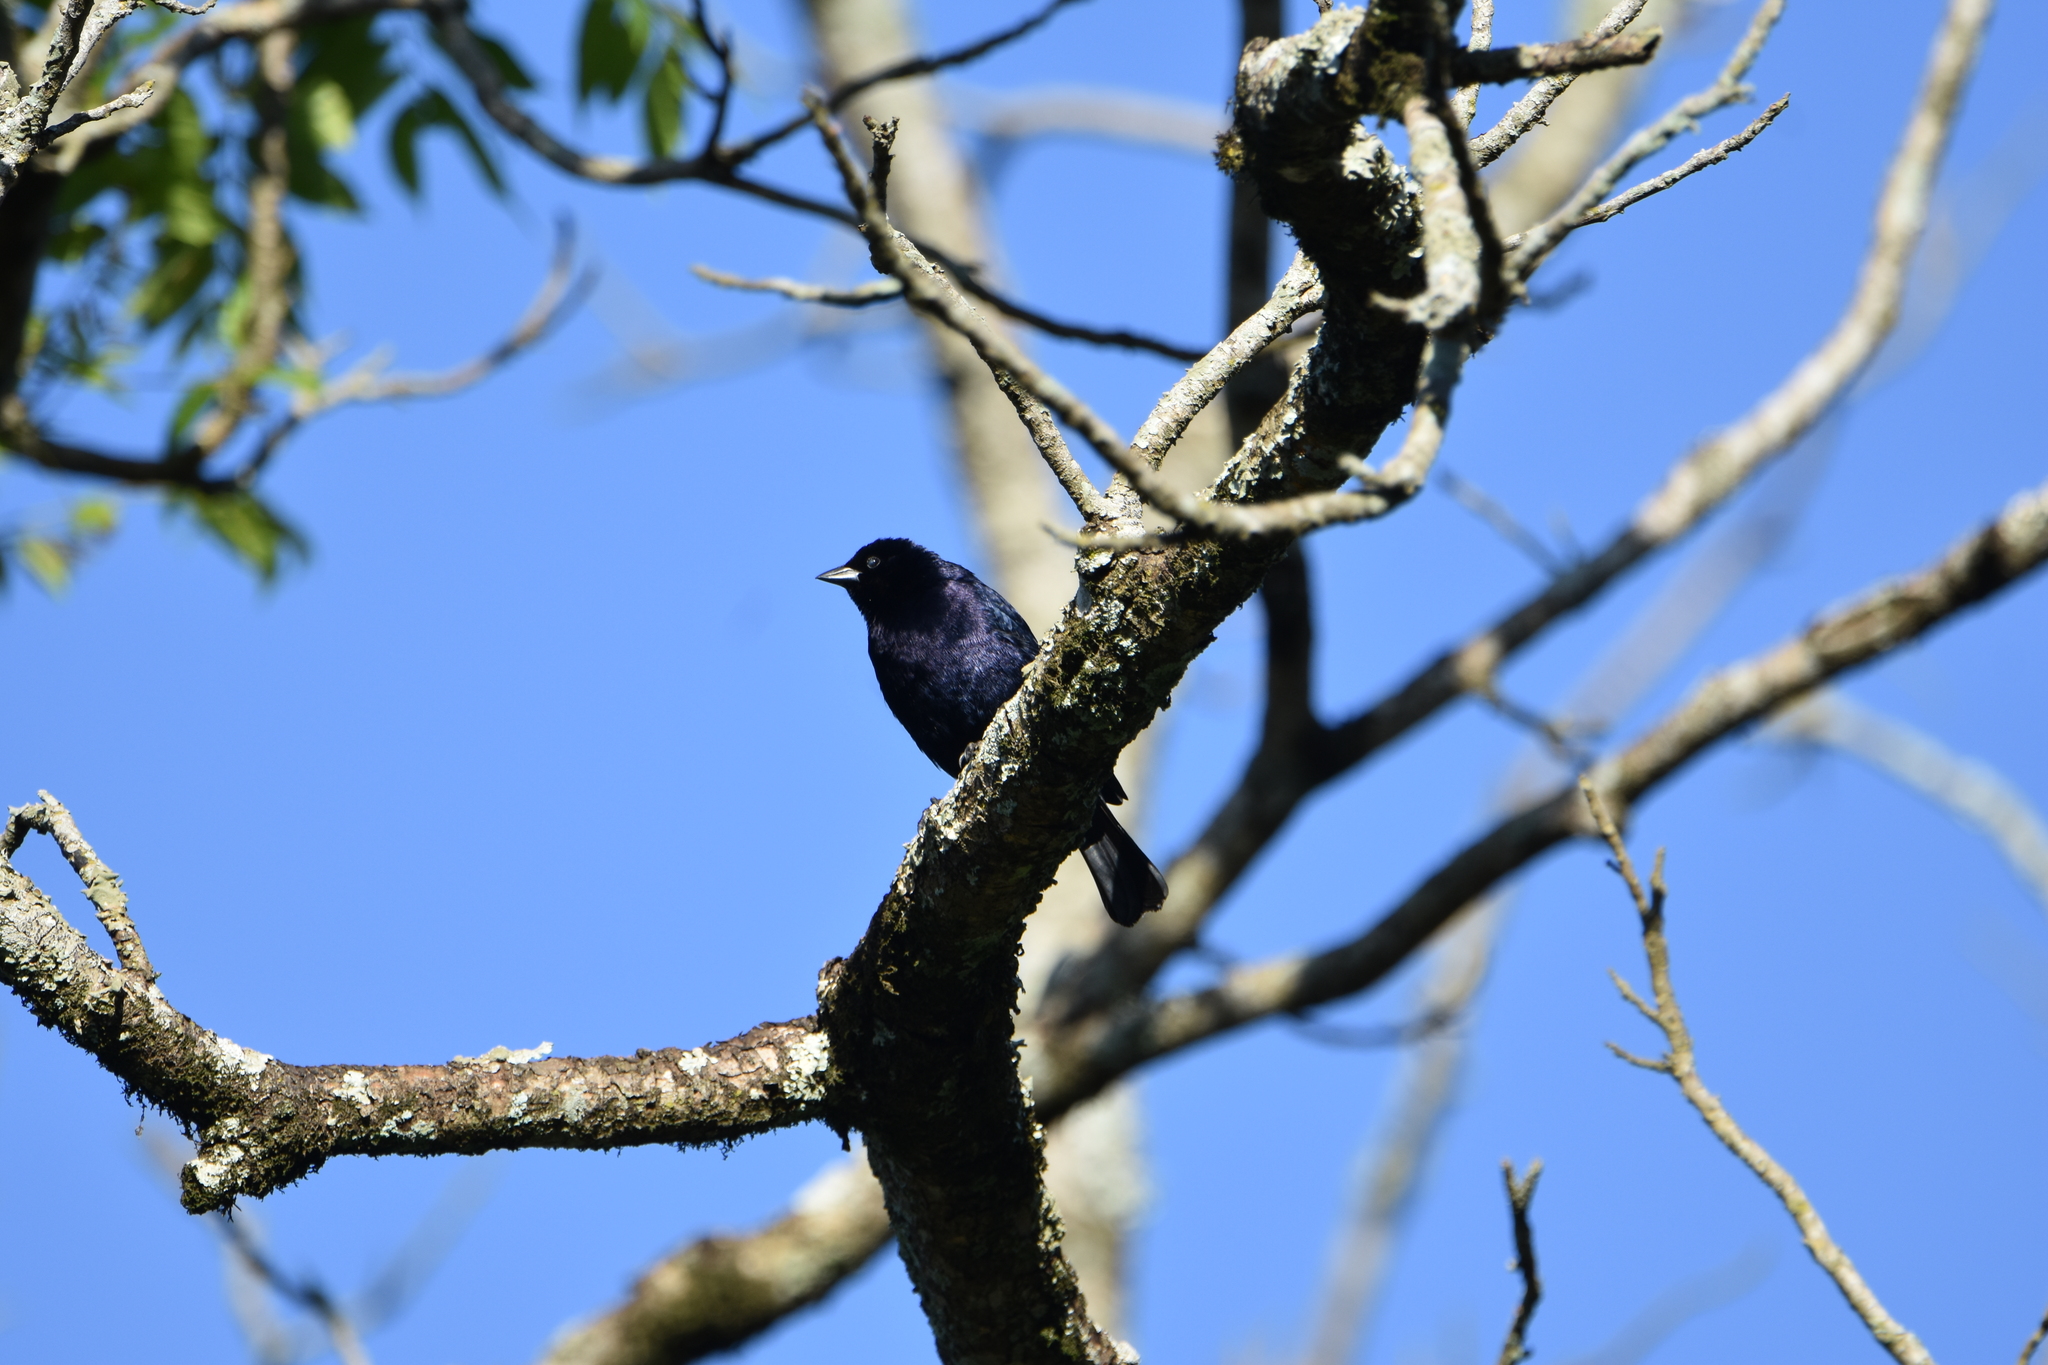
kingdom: Animalia
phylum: Chordata
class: Aves
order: Passeriformes
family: Icteridae
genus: Molothrus
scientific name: Molothrus bonariensis
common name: Shiny cowbird
